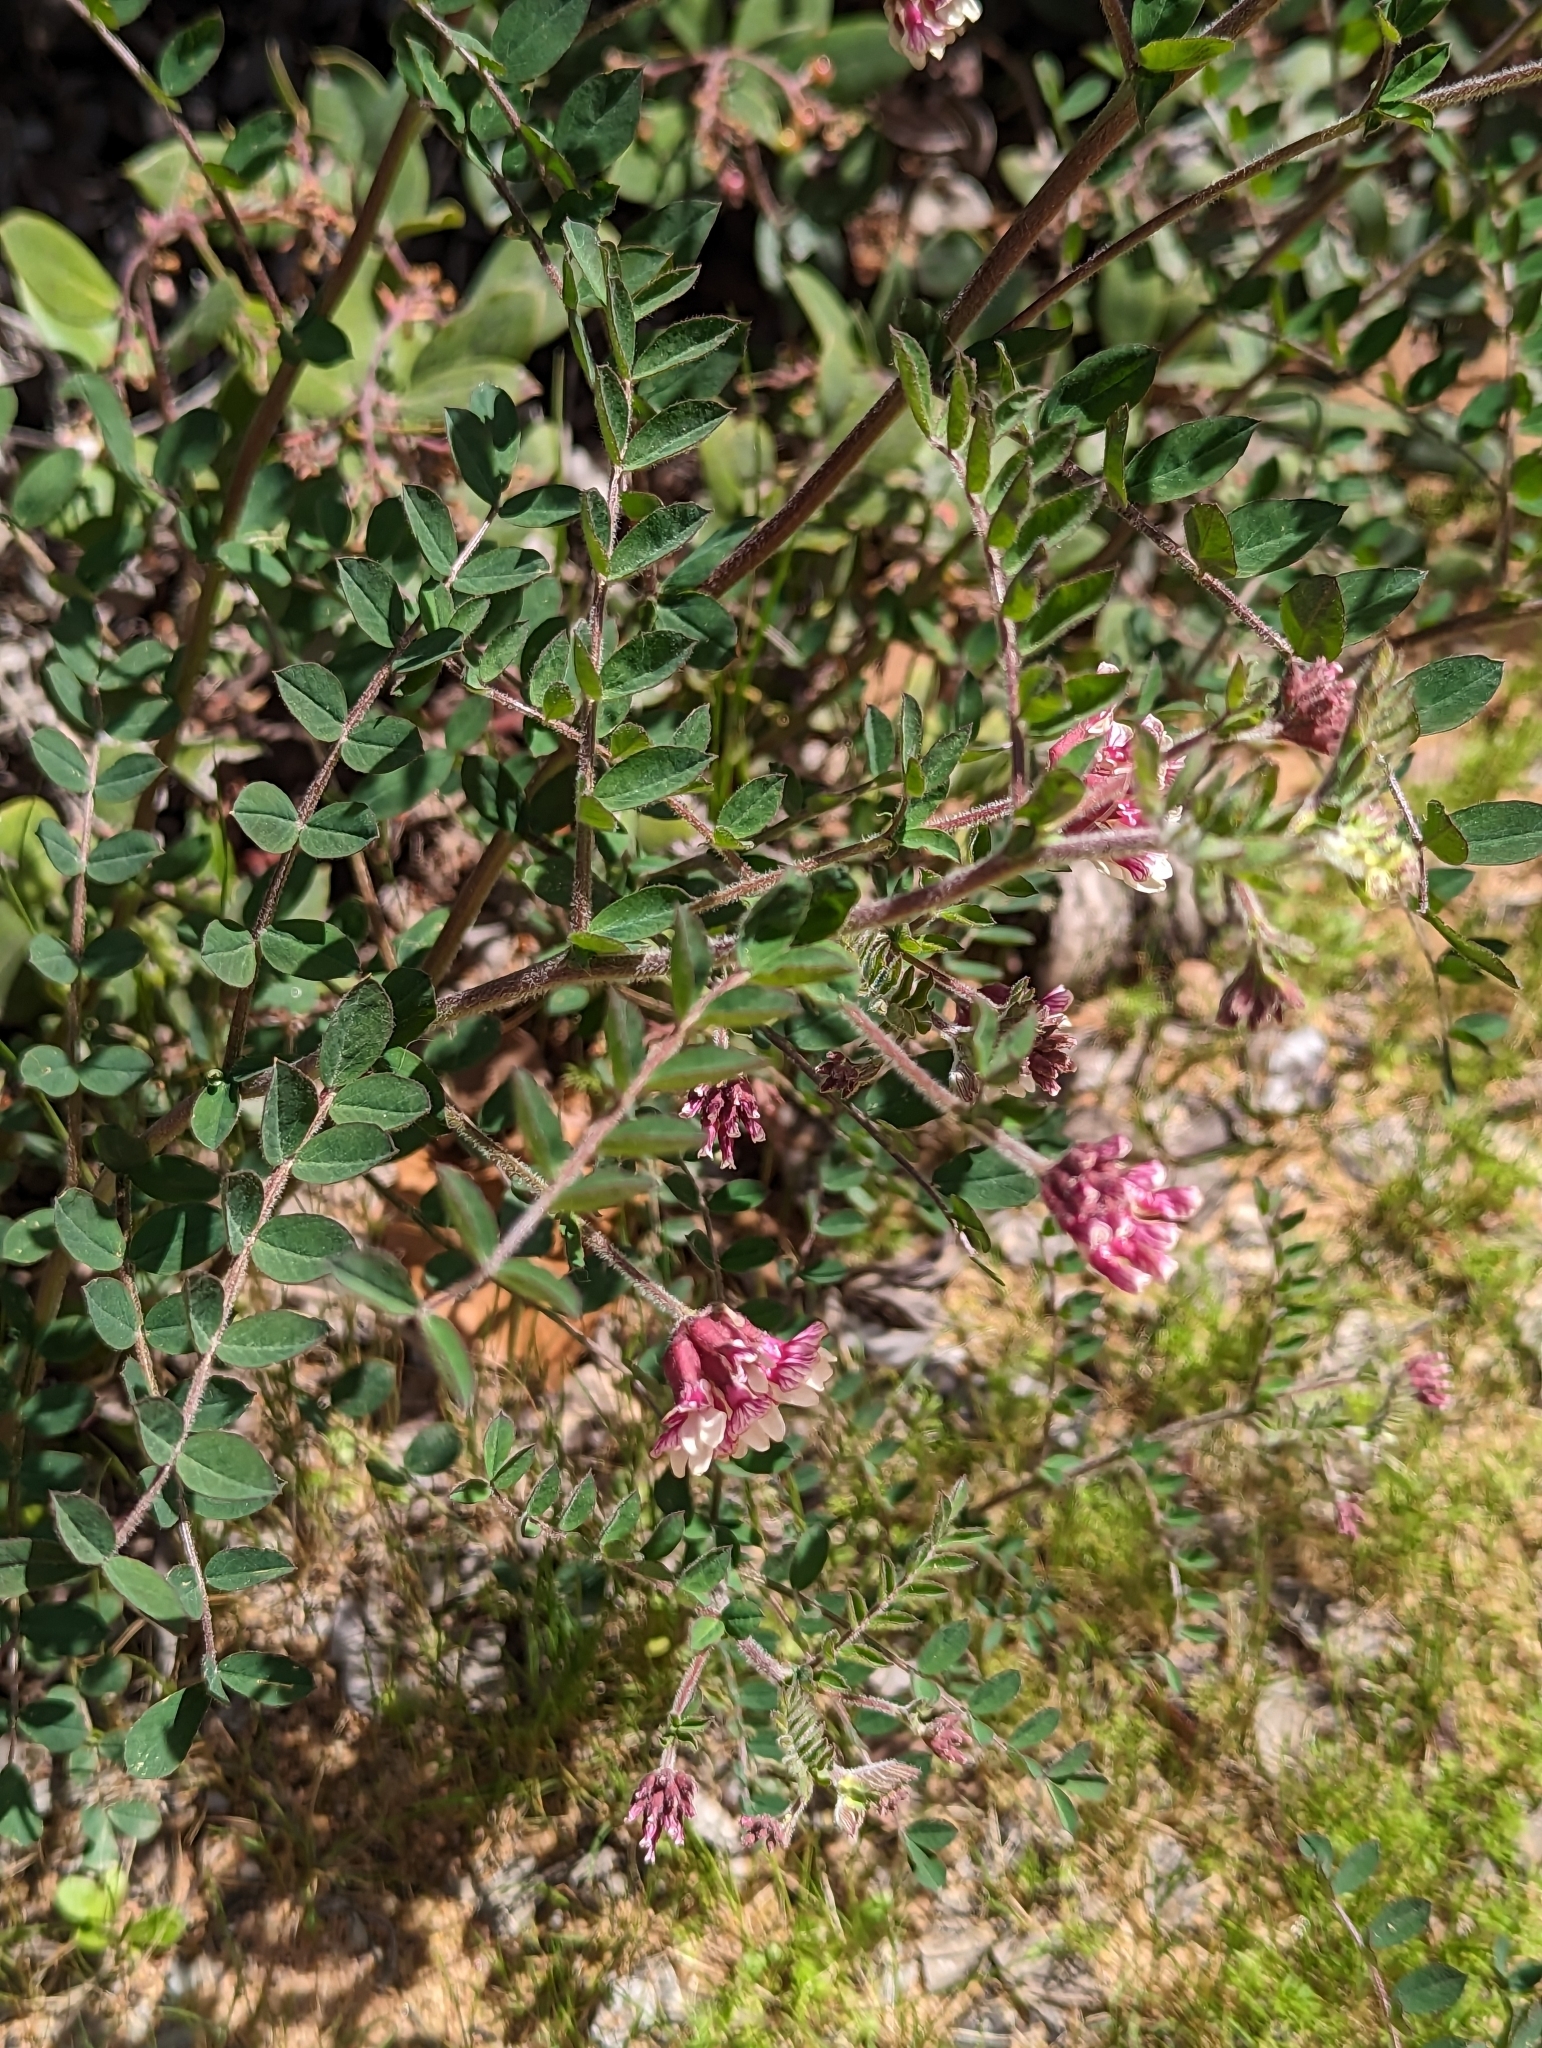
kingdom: Plantae
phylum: Tracheophyta
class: Magnoliopsida
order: Fabales
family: Fabaceae
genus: Hosackia
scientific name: Hosackia stipularis
